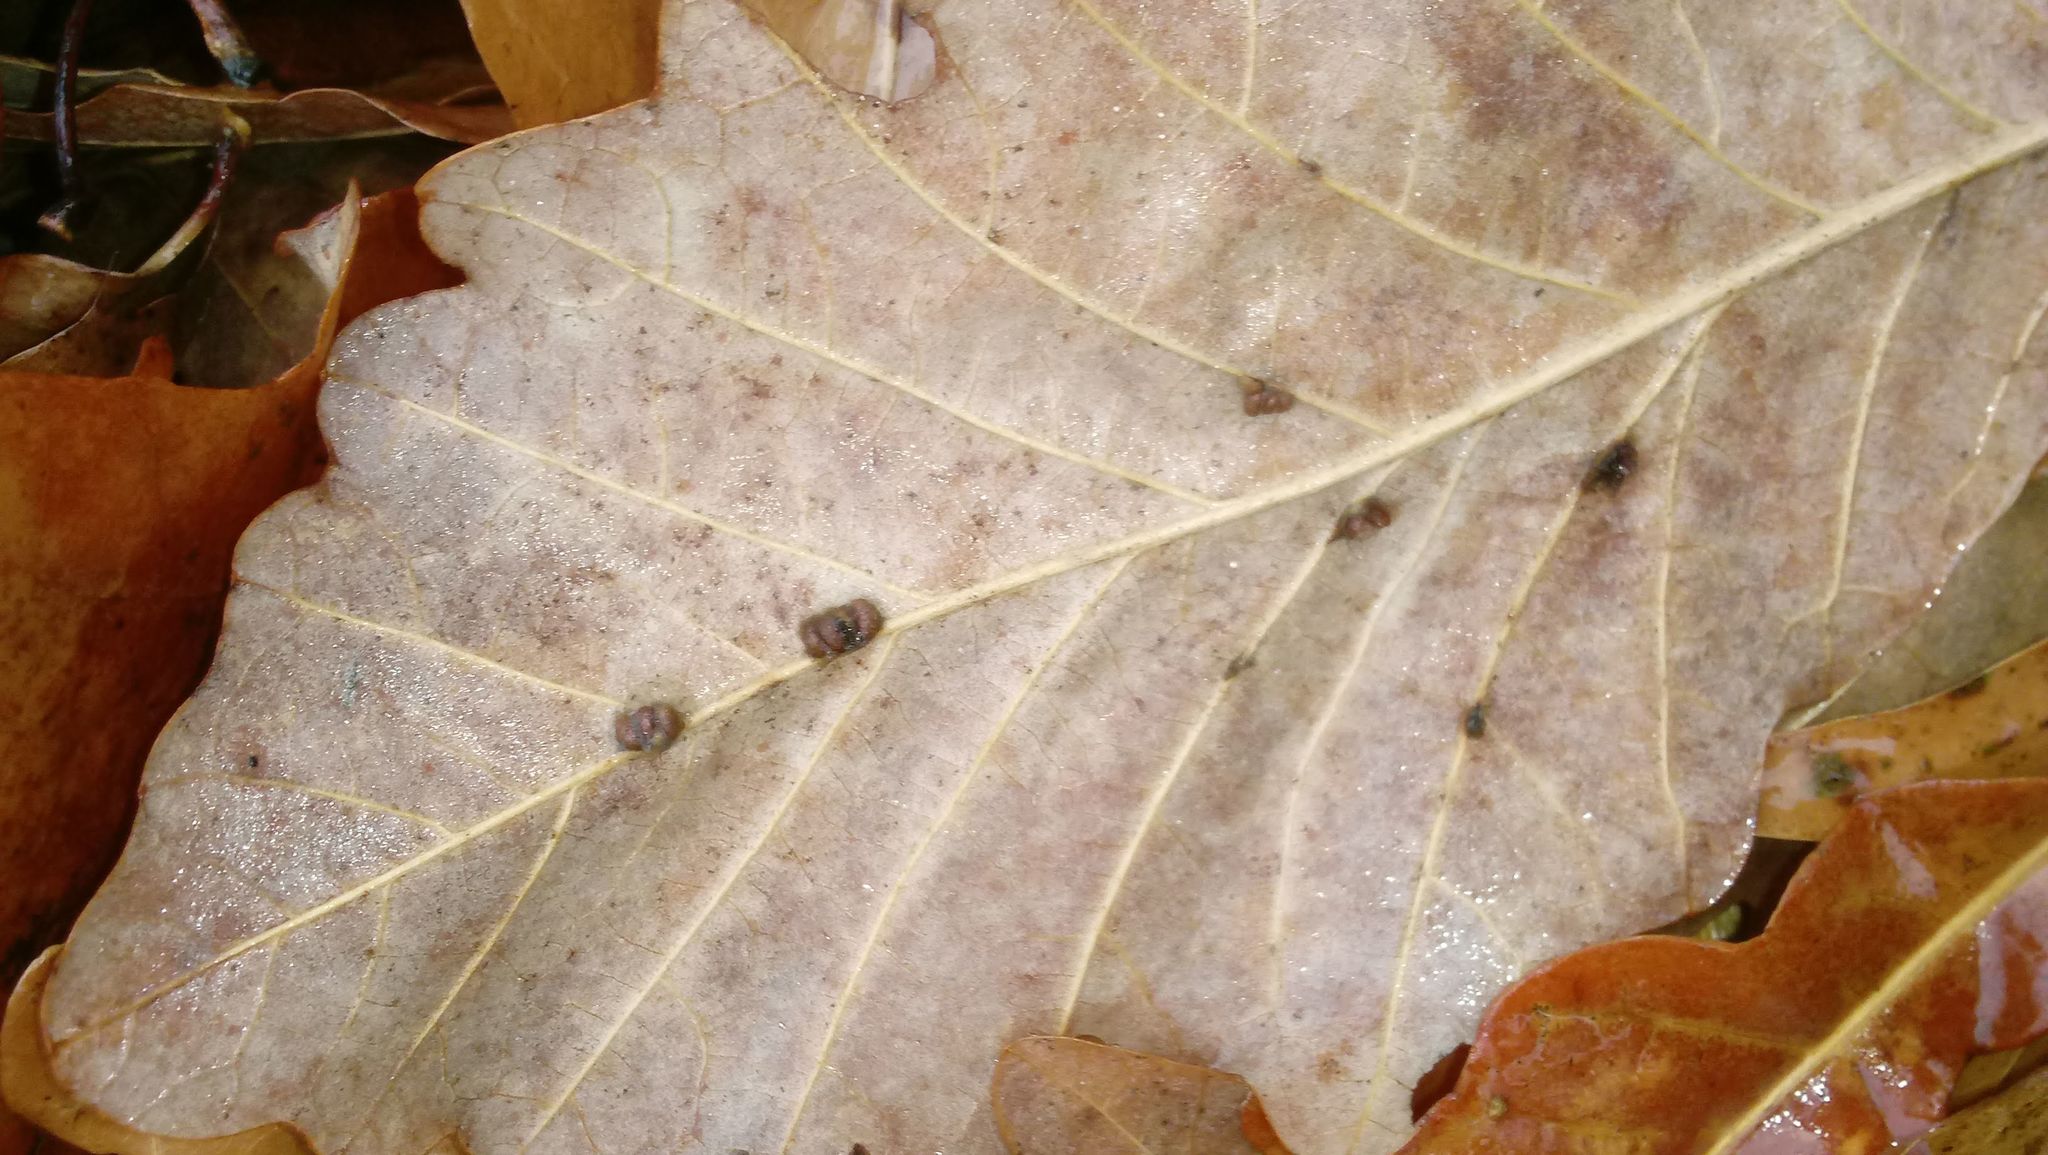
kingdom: Animalia
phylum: Arthropoda
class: Insecta
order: Hymenoptera
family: Cynipidae
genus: Andricus
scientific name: Andricus Druon ignotum
